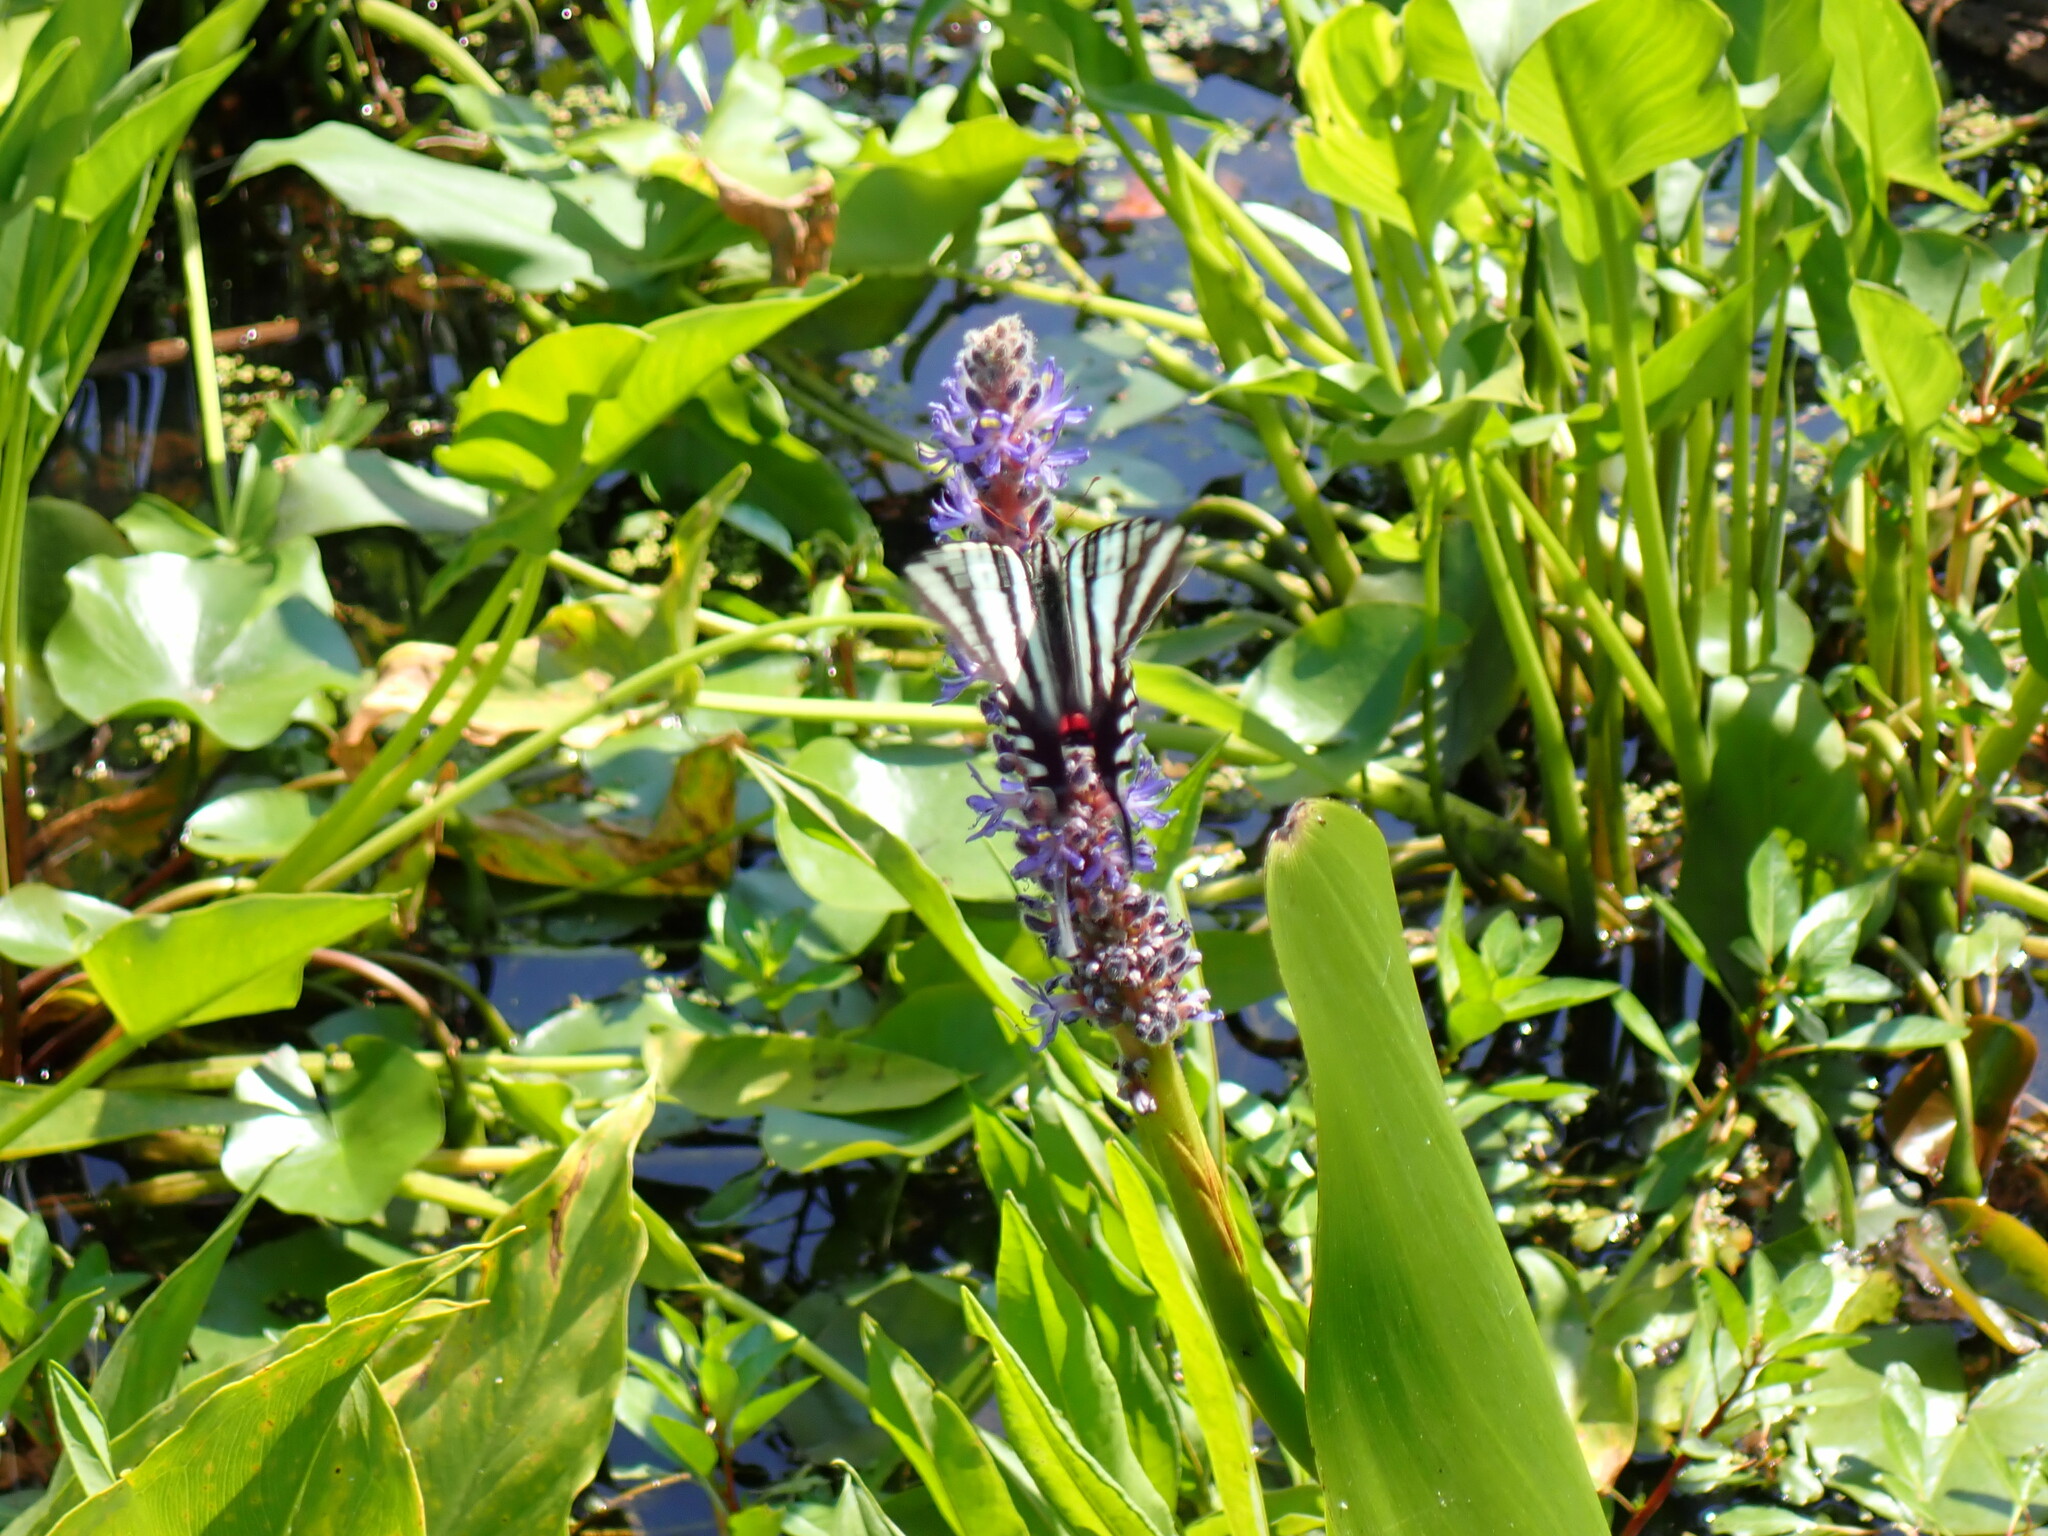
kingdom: Animalia
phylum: Arthropoda
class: Insecta
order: Lepidoptera
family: Papilionidae
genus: Protographium
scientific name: Protographium marcellus
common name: Zebra swallowtail
